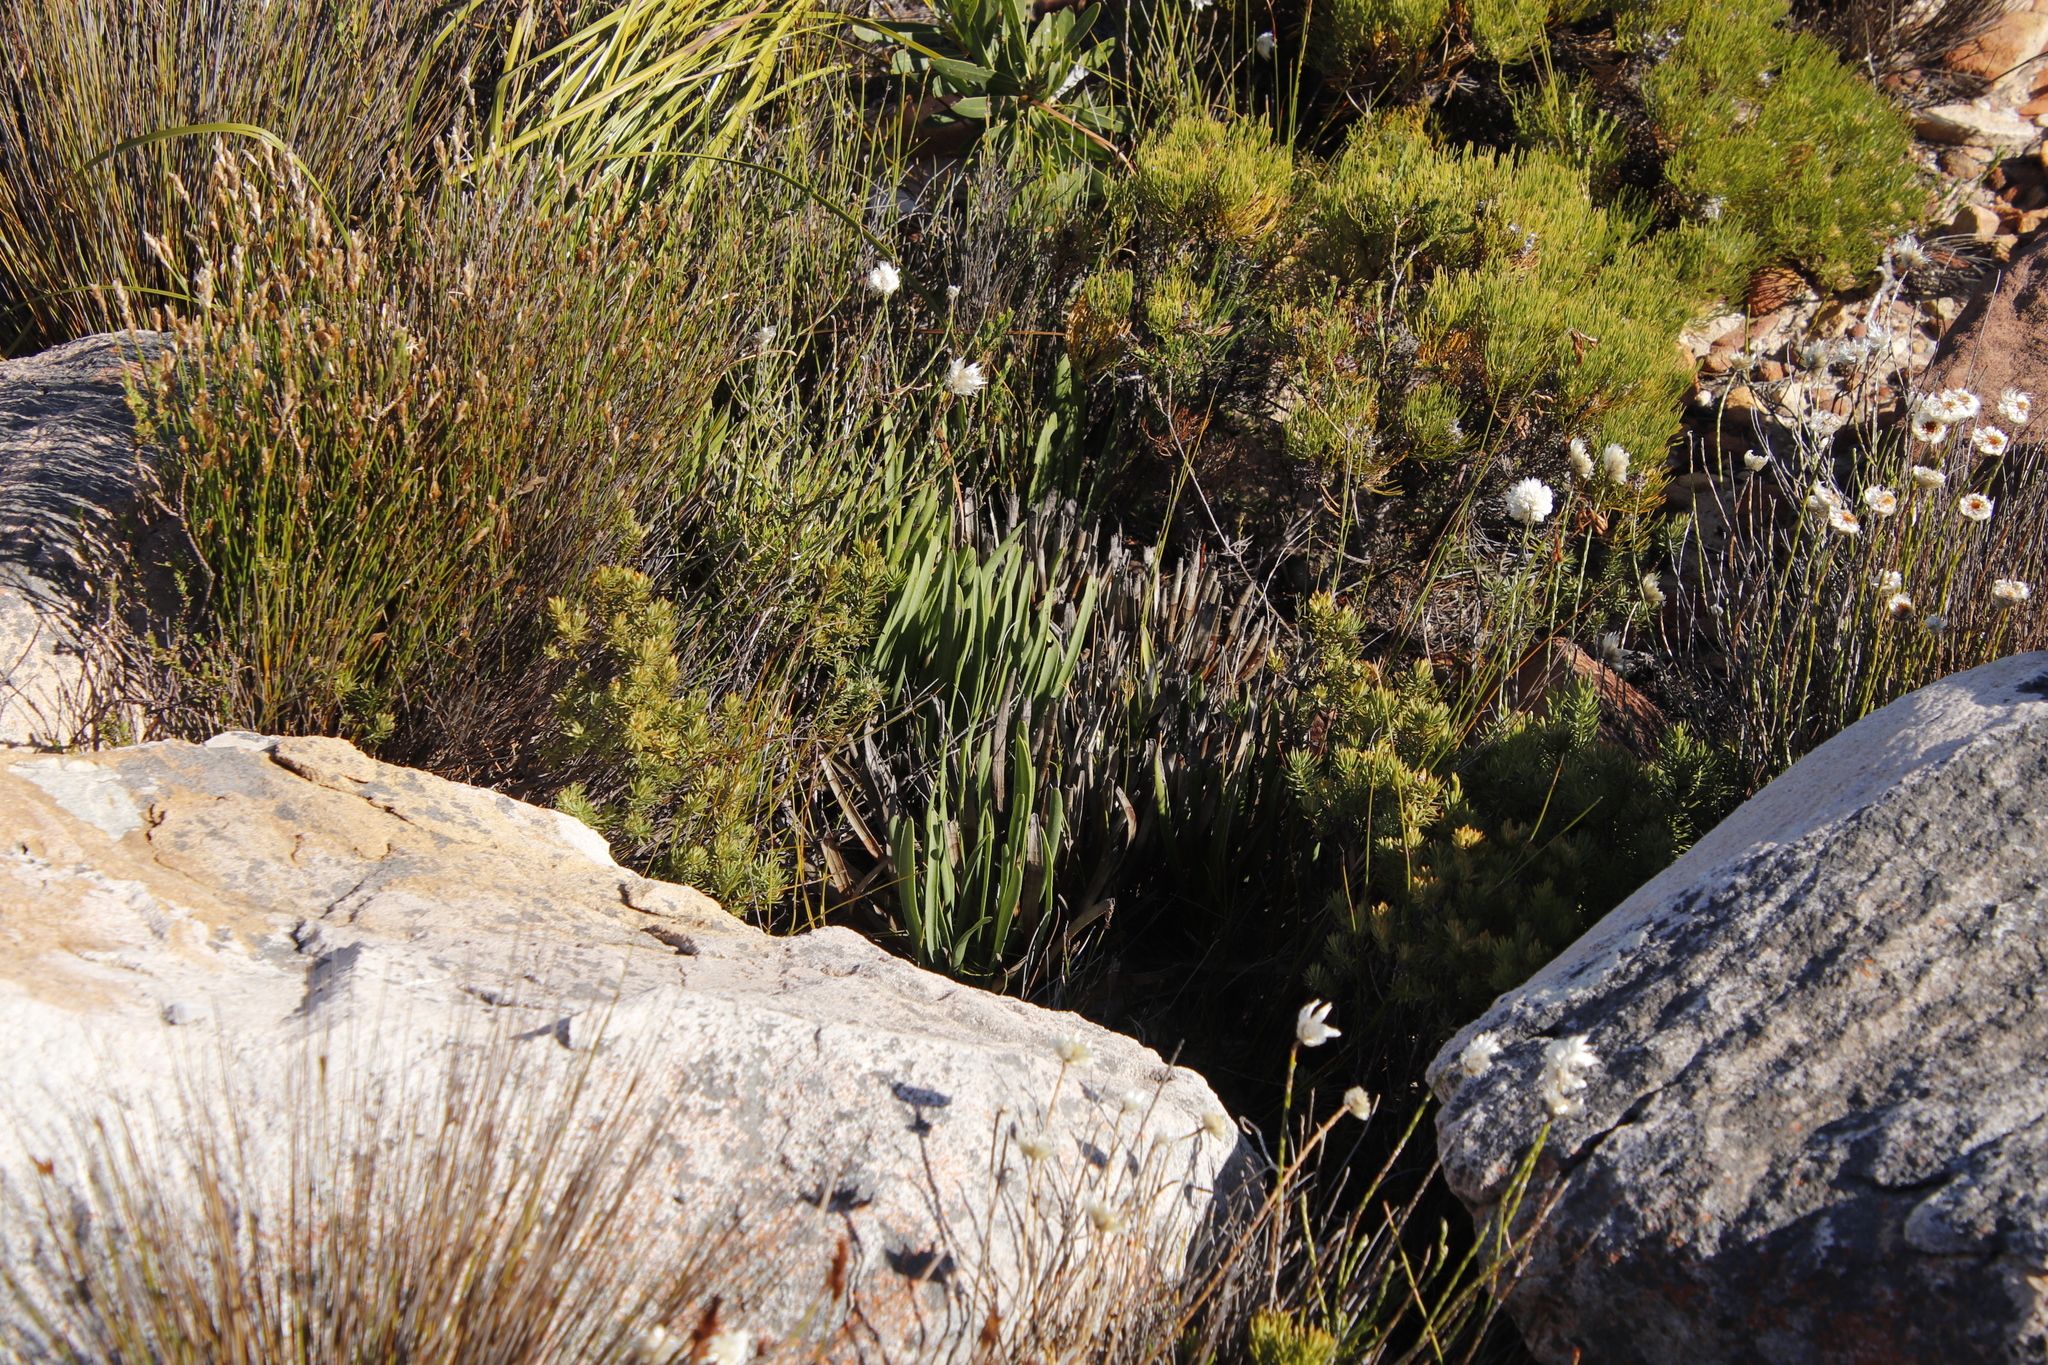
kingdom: Plantae
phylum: Tracheophyta
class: Magnoliopsida
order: Proteales
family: Proteaceae
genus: Protea
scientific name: Protea scabra
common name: Sandpaper-leaf sugarbush
